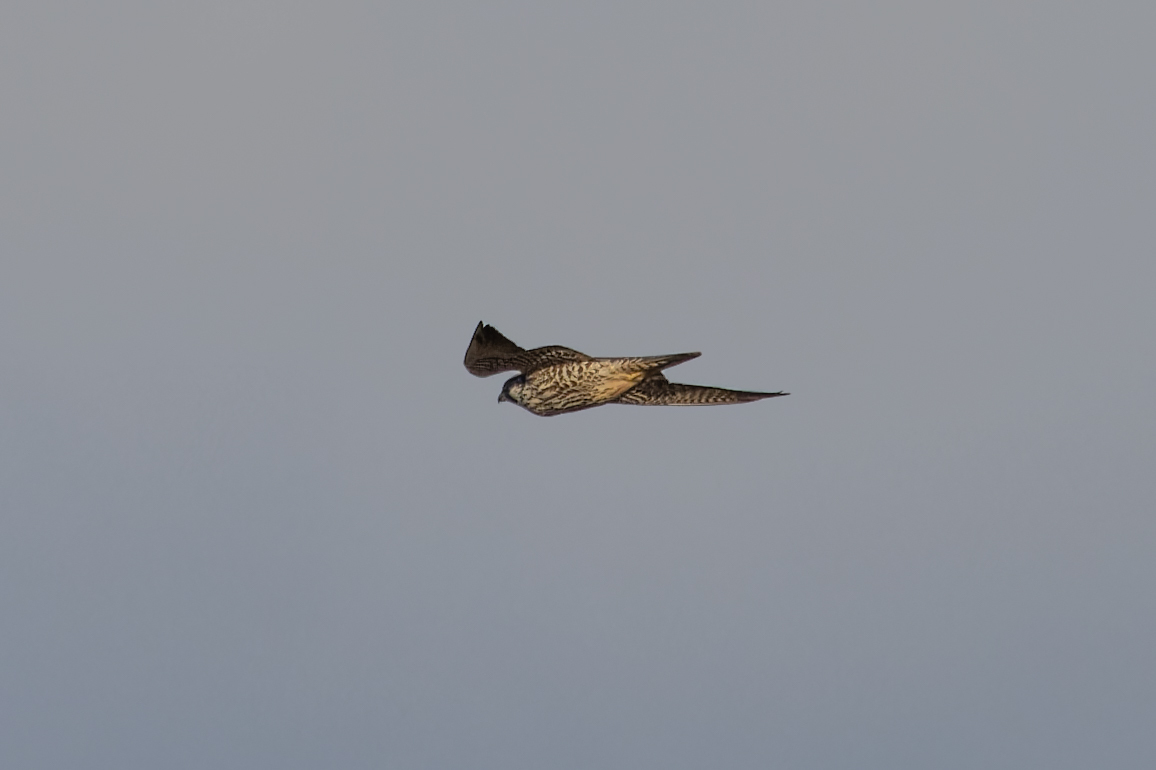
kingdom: Animalia
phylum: Chordata
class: Aves
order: Falconiformes
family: Falconidae
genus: Falco
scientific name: Falco peregrinus
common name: Peregrine falcon
